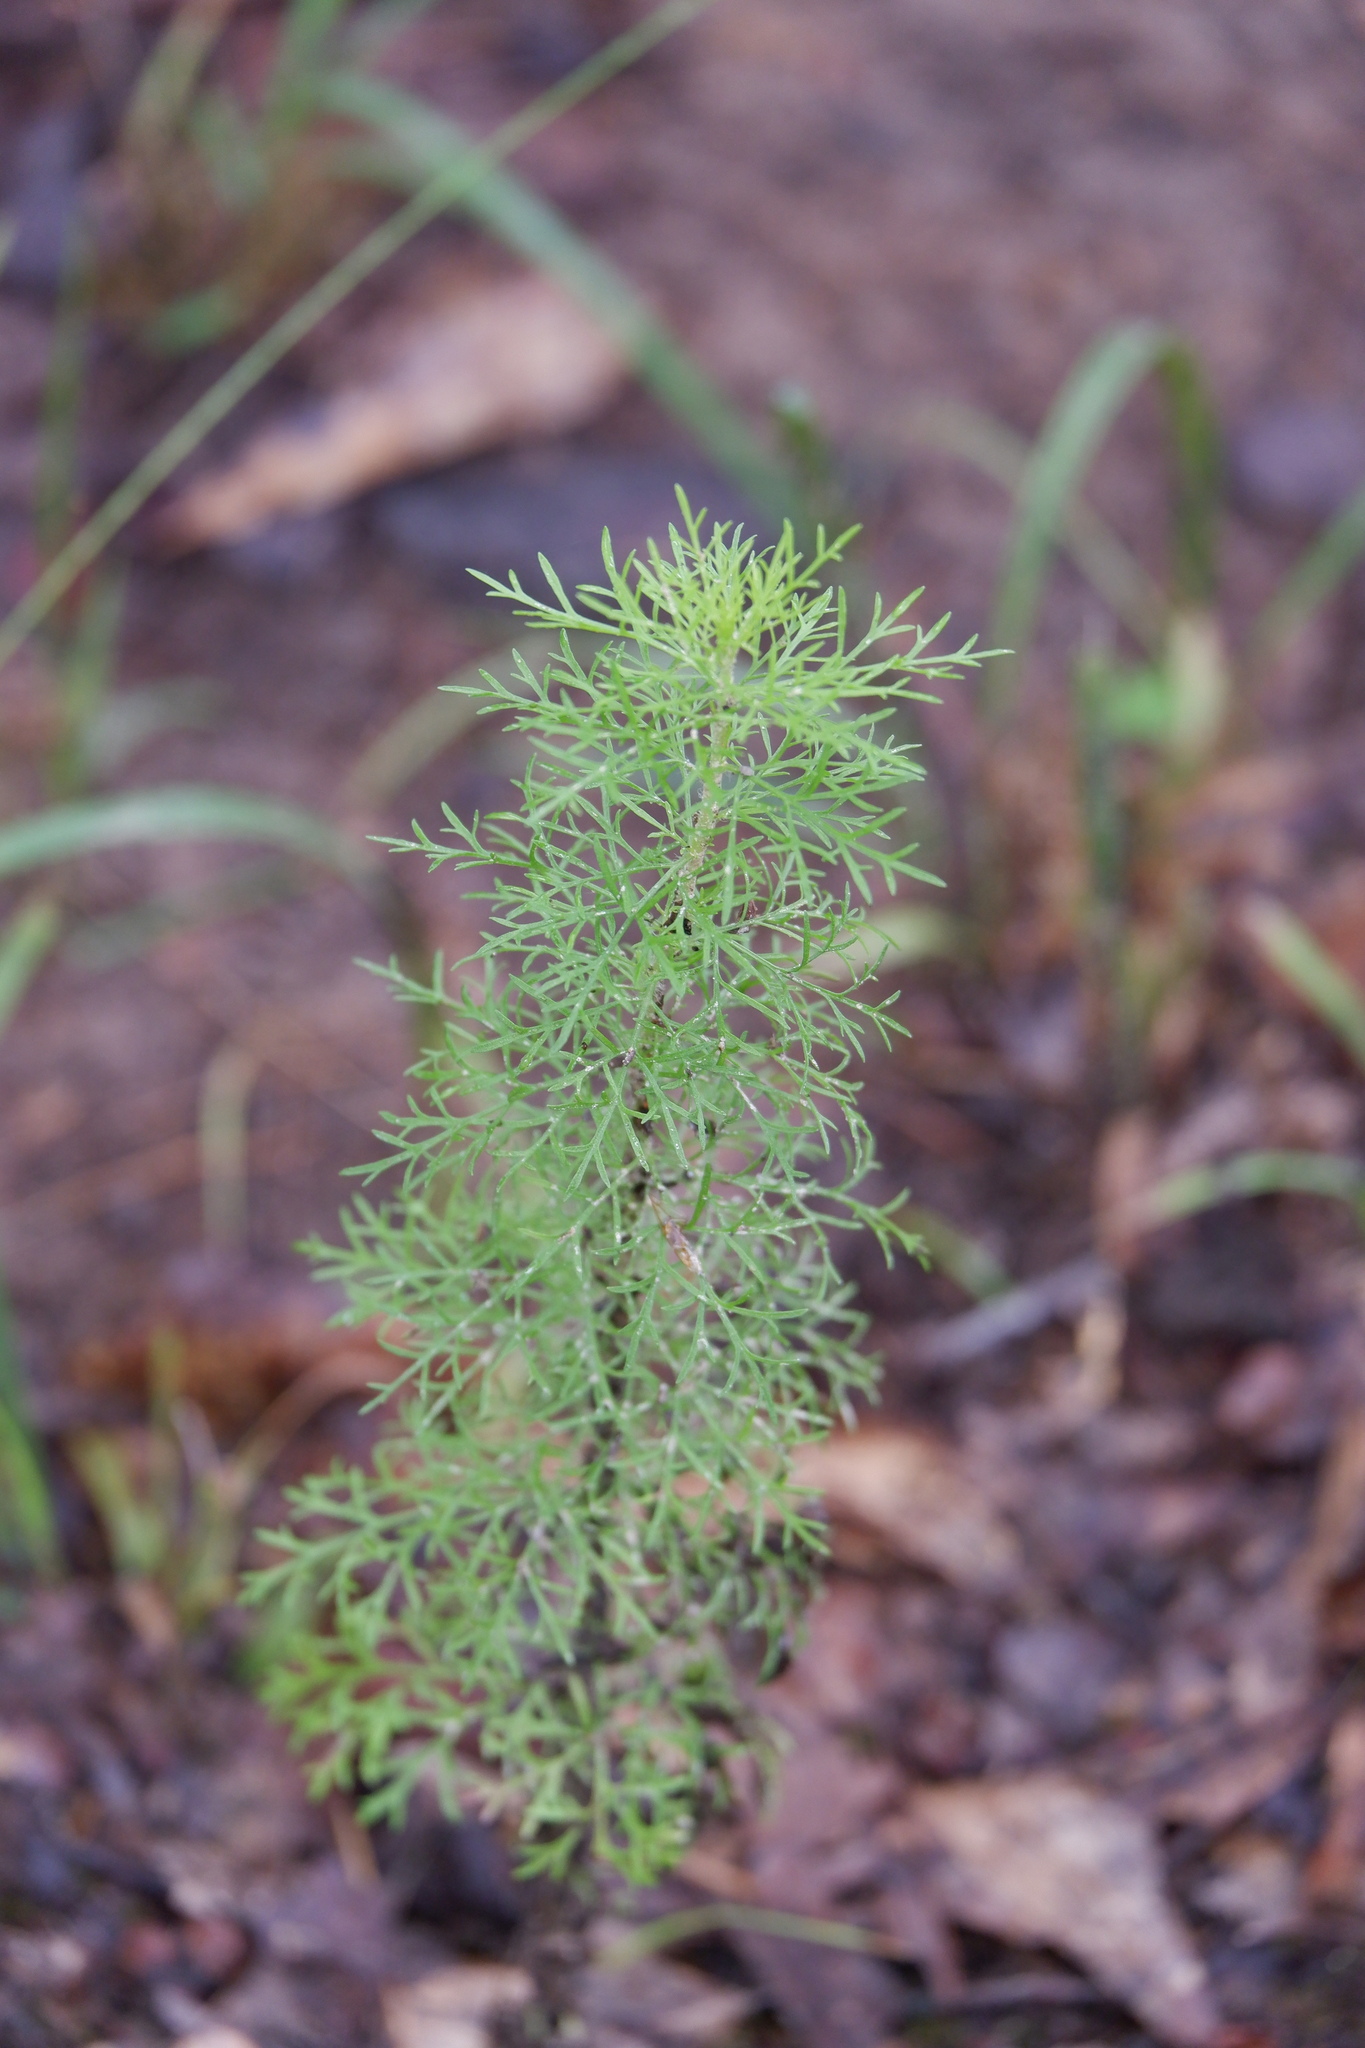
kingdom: Plantae
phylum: Tracheophyta
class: Magnoliopsida
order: Asterales
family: Asteraceae
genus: Eupatorium
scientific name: Eupatorium capillifolium
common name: Dog-fennel
